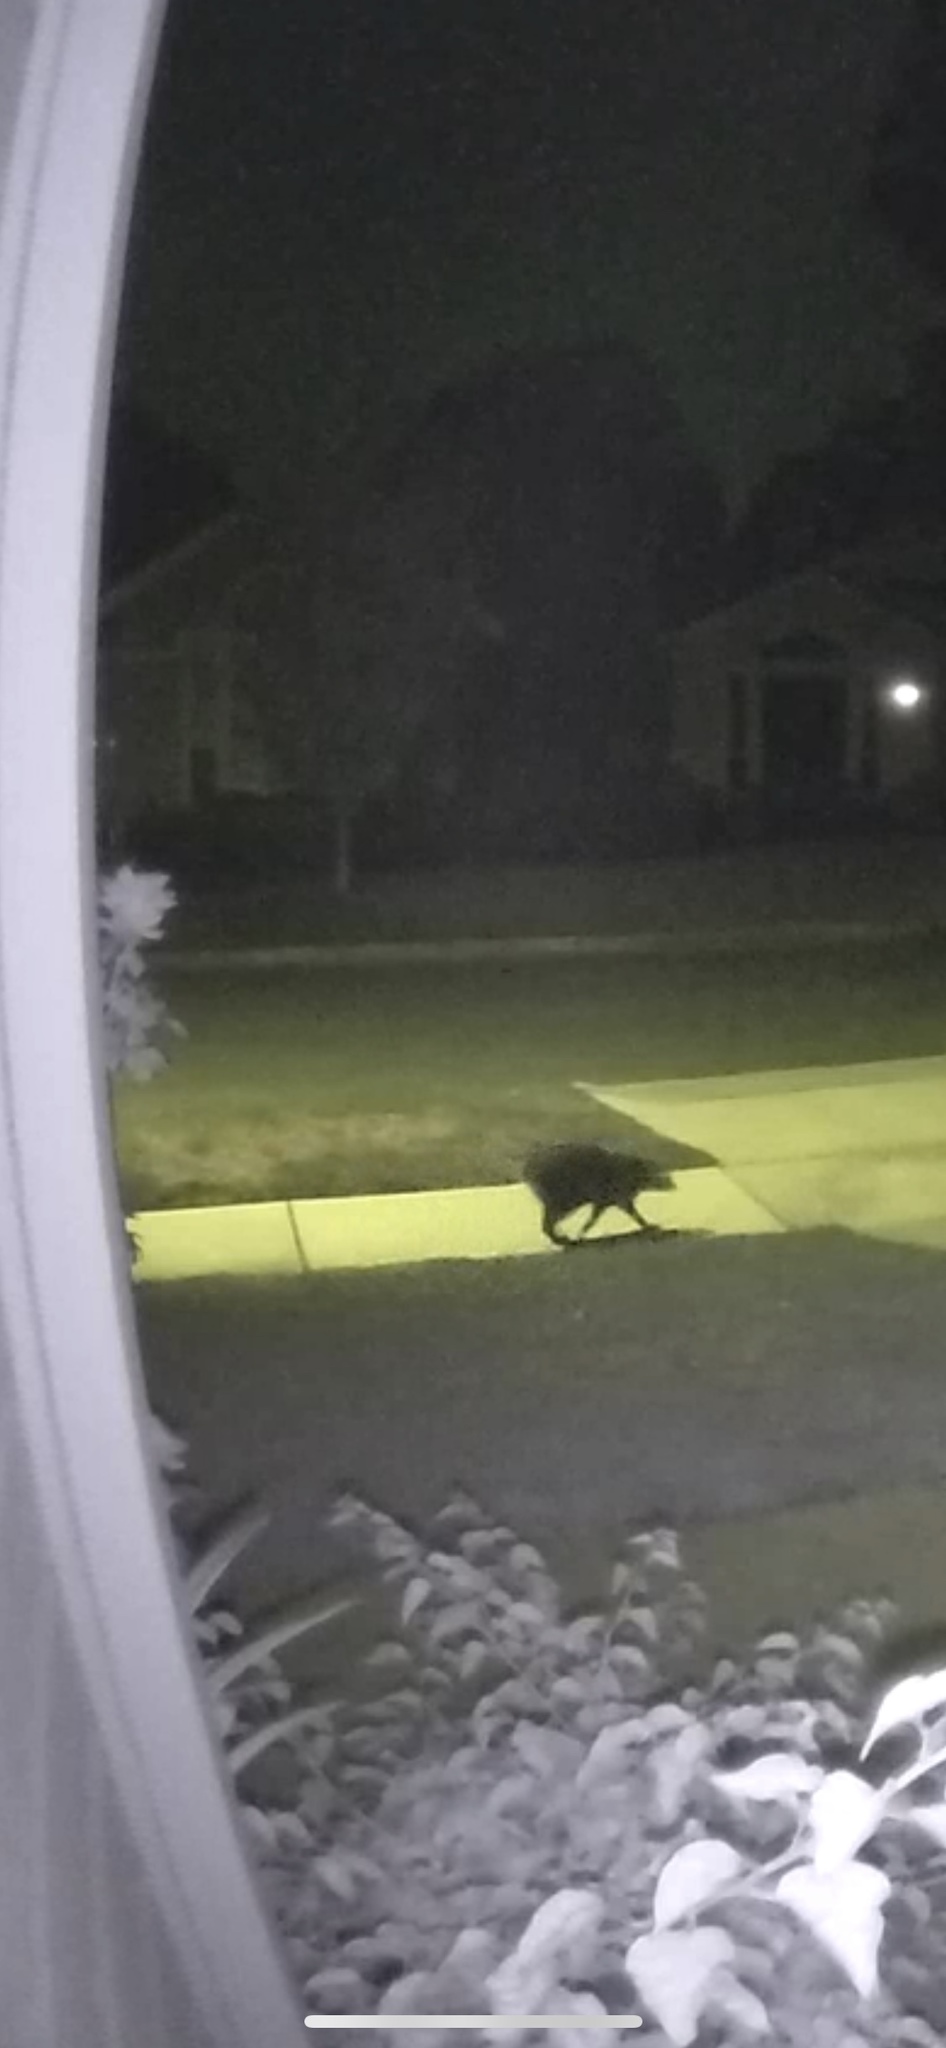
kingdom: Animalia
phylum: Chordata
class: Mammalia
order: Carnivora
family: Procyonidae
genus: Procyon
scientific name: Procyon lotor
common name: Raccoon
